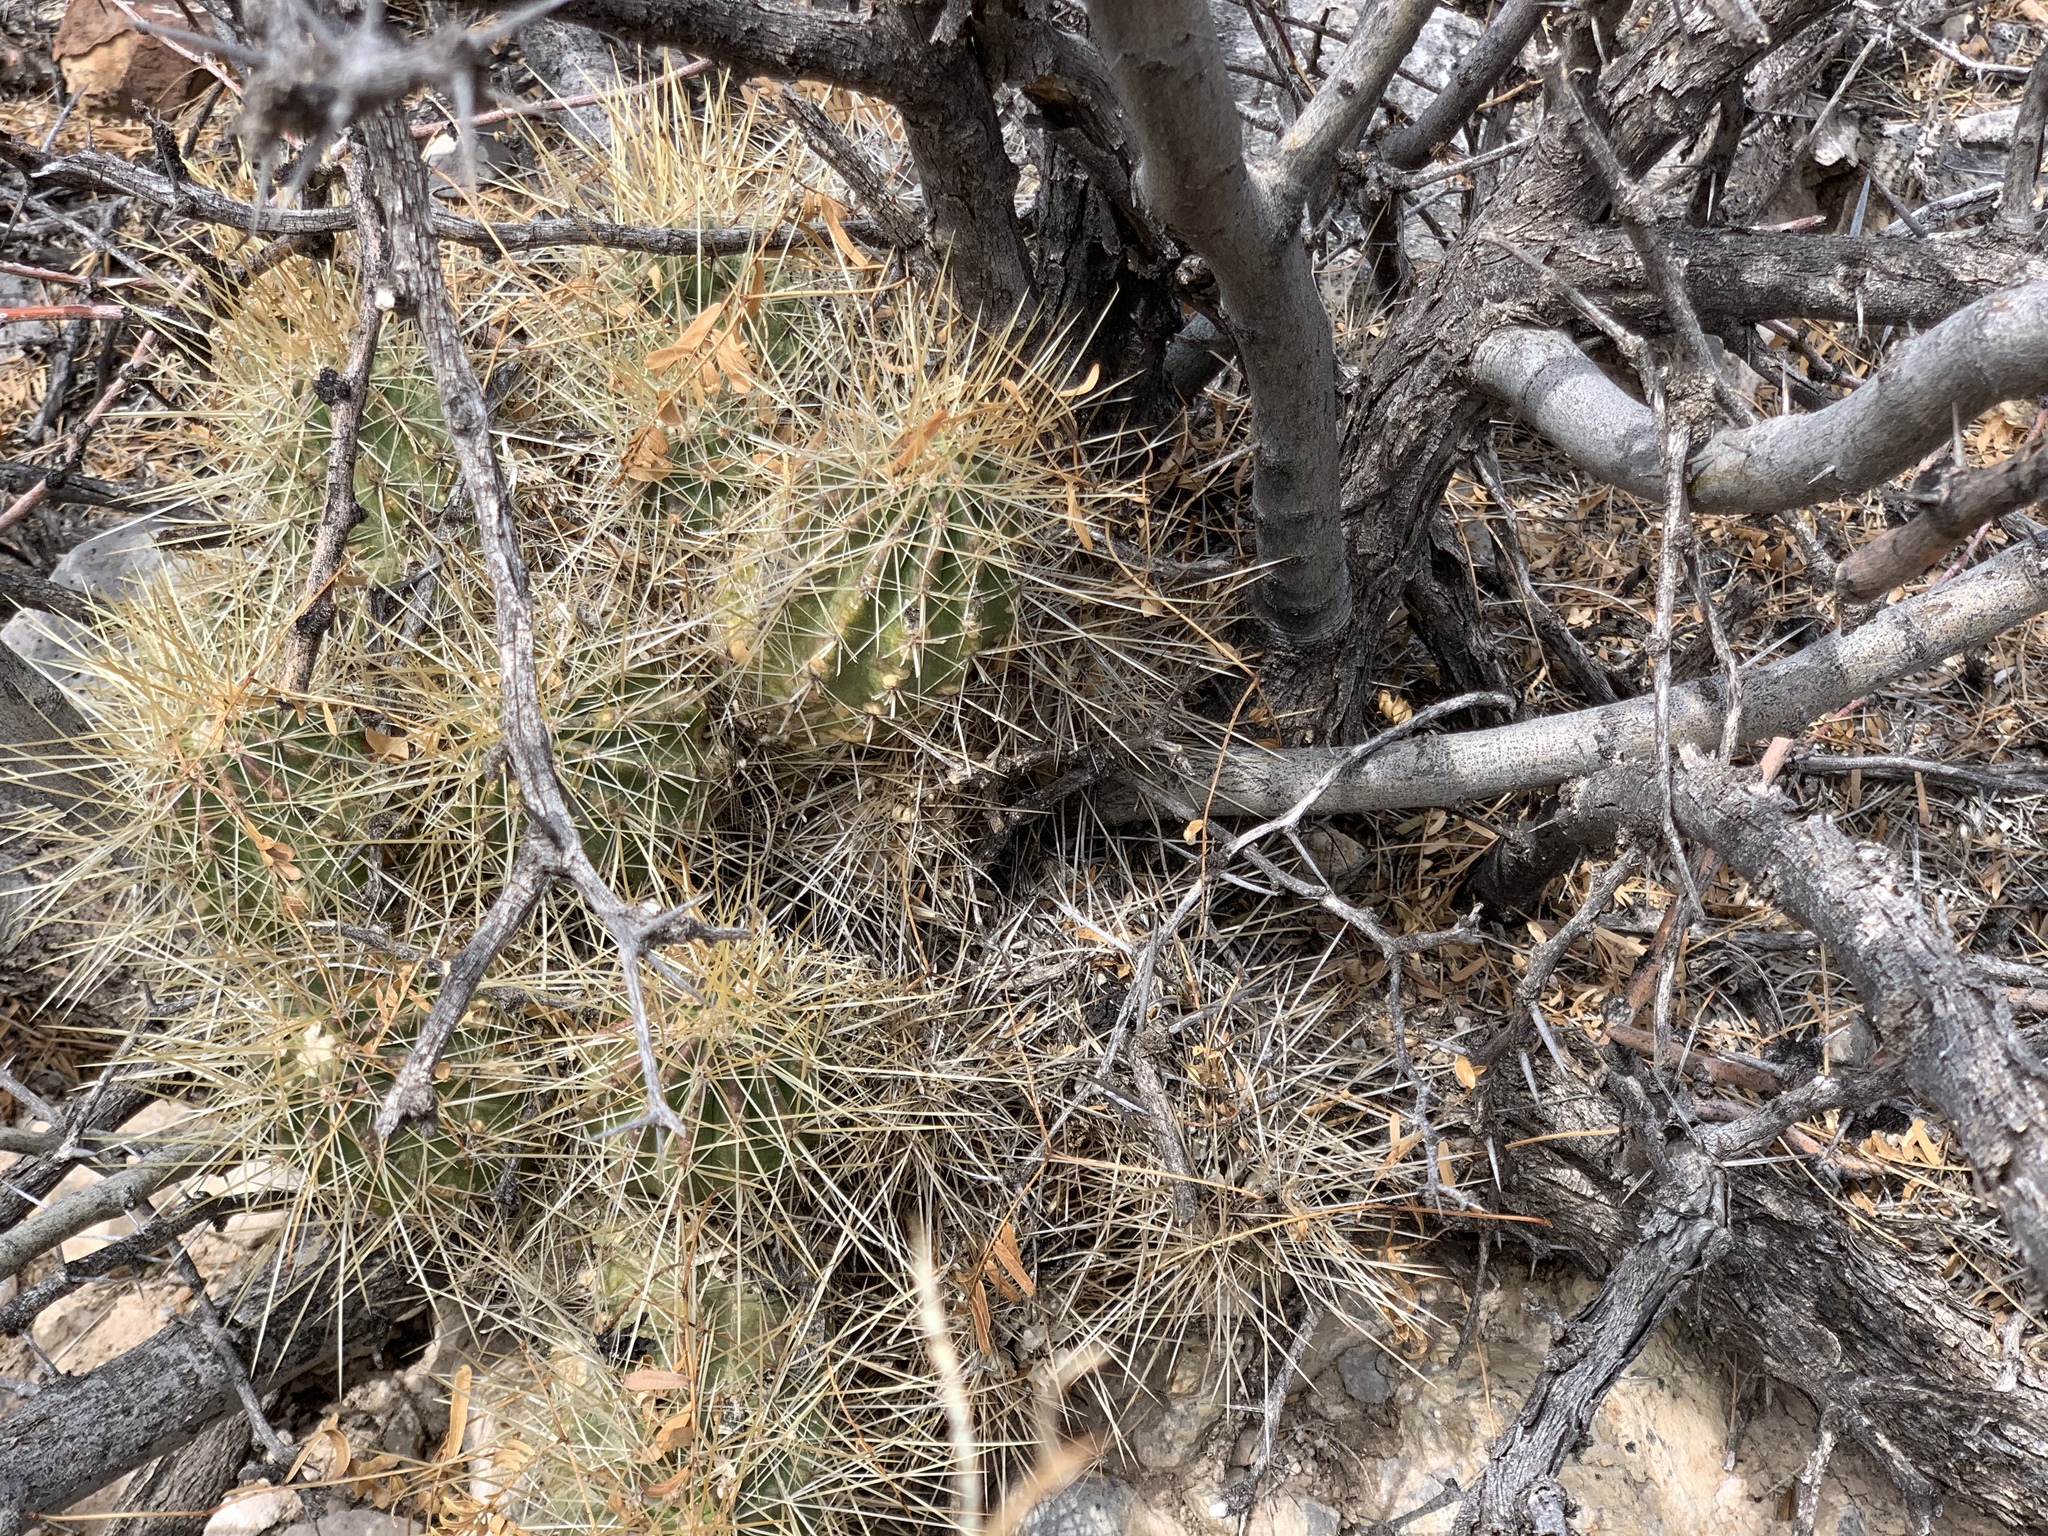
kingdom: Plantae
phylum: Tracheophyta
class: Magnoliopsida
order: Caryophyllales
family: Cactaceae
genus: Echinocereus
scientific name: Echinocereus stramineus
